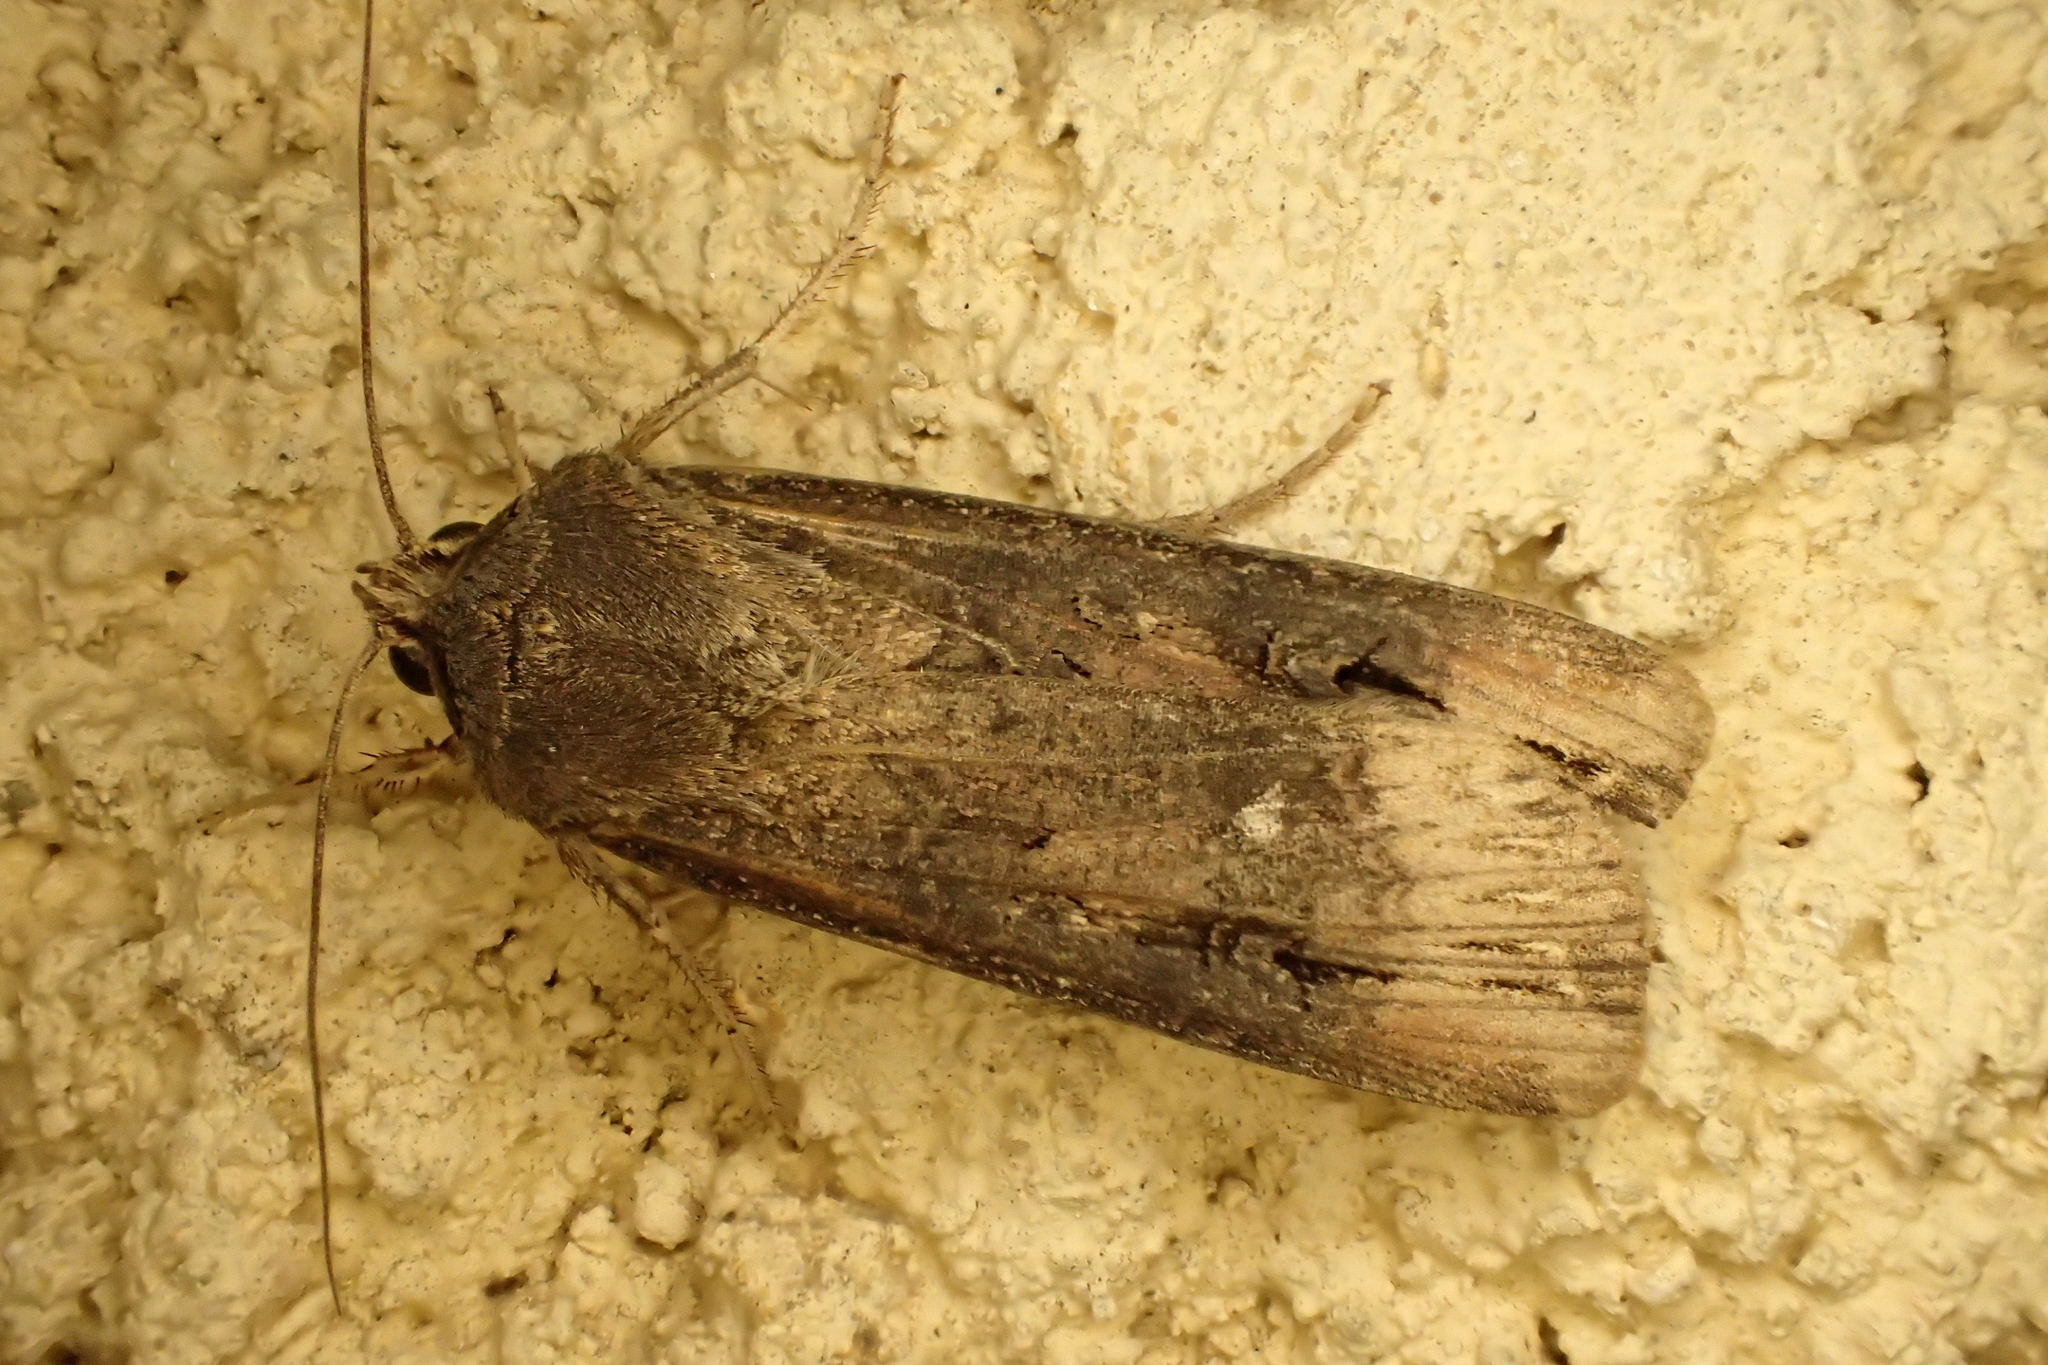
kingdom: Animalia
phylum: Arthropoda
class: Insecta
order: Lepidoptera
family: Noctuidae
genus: Agrotis
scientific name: Agrotis ipsilon
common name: Dark sword-grass
